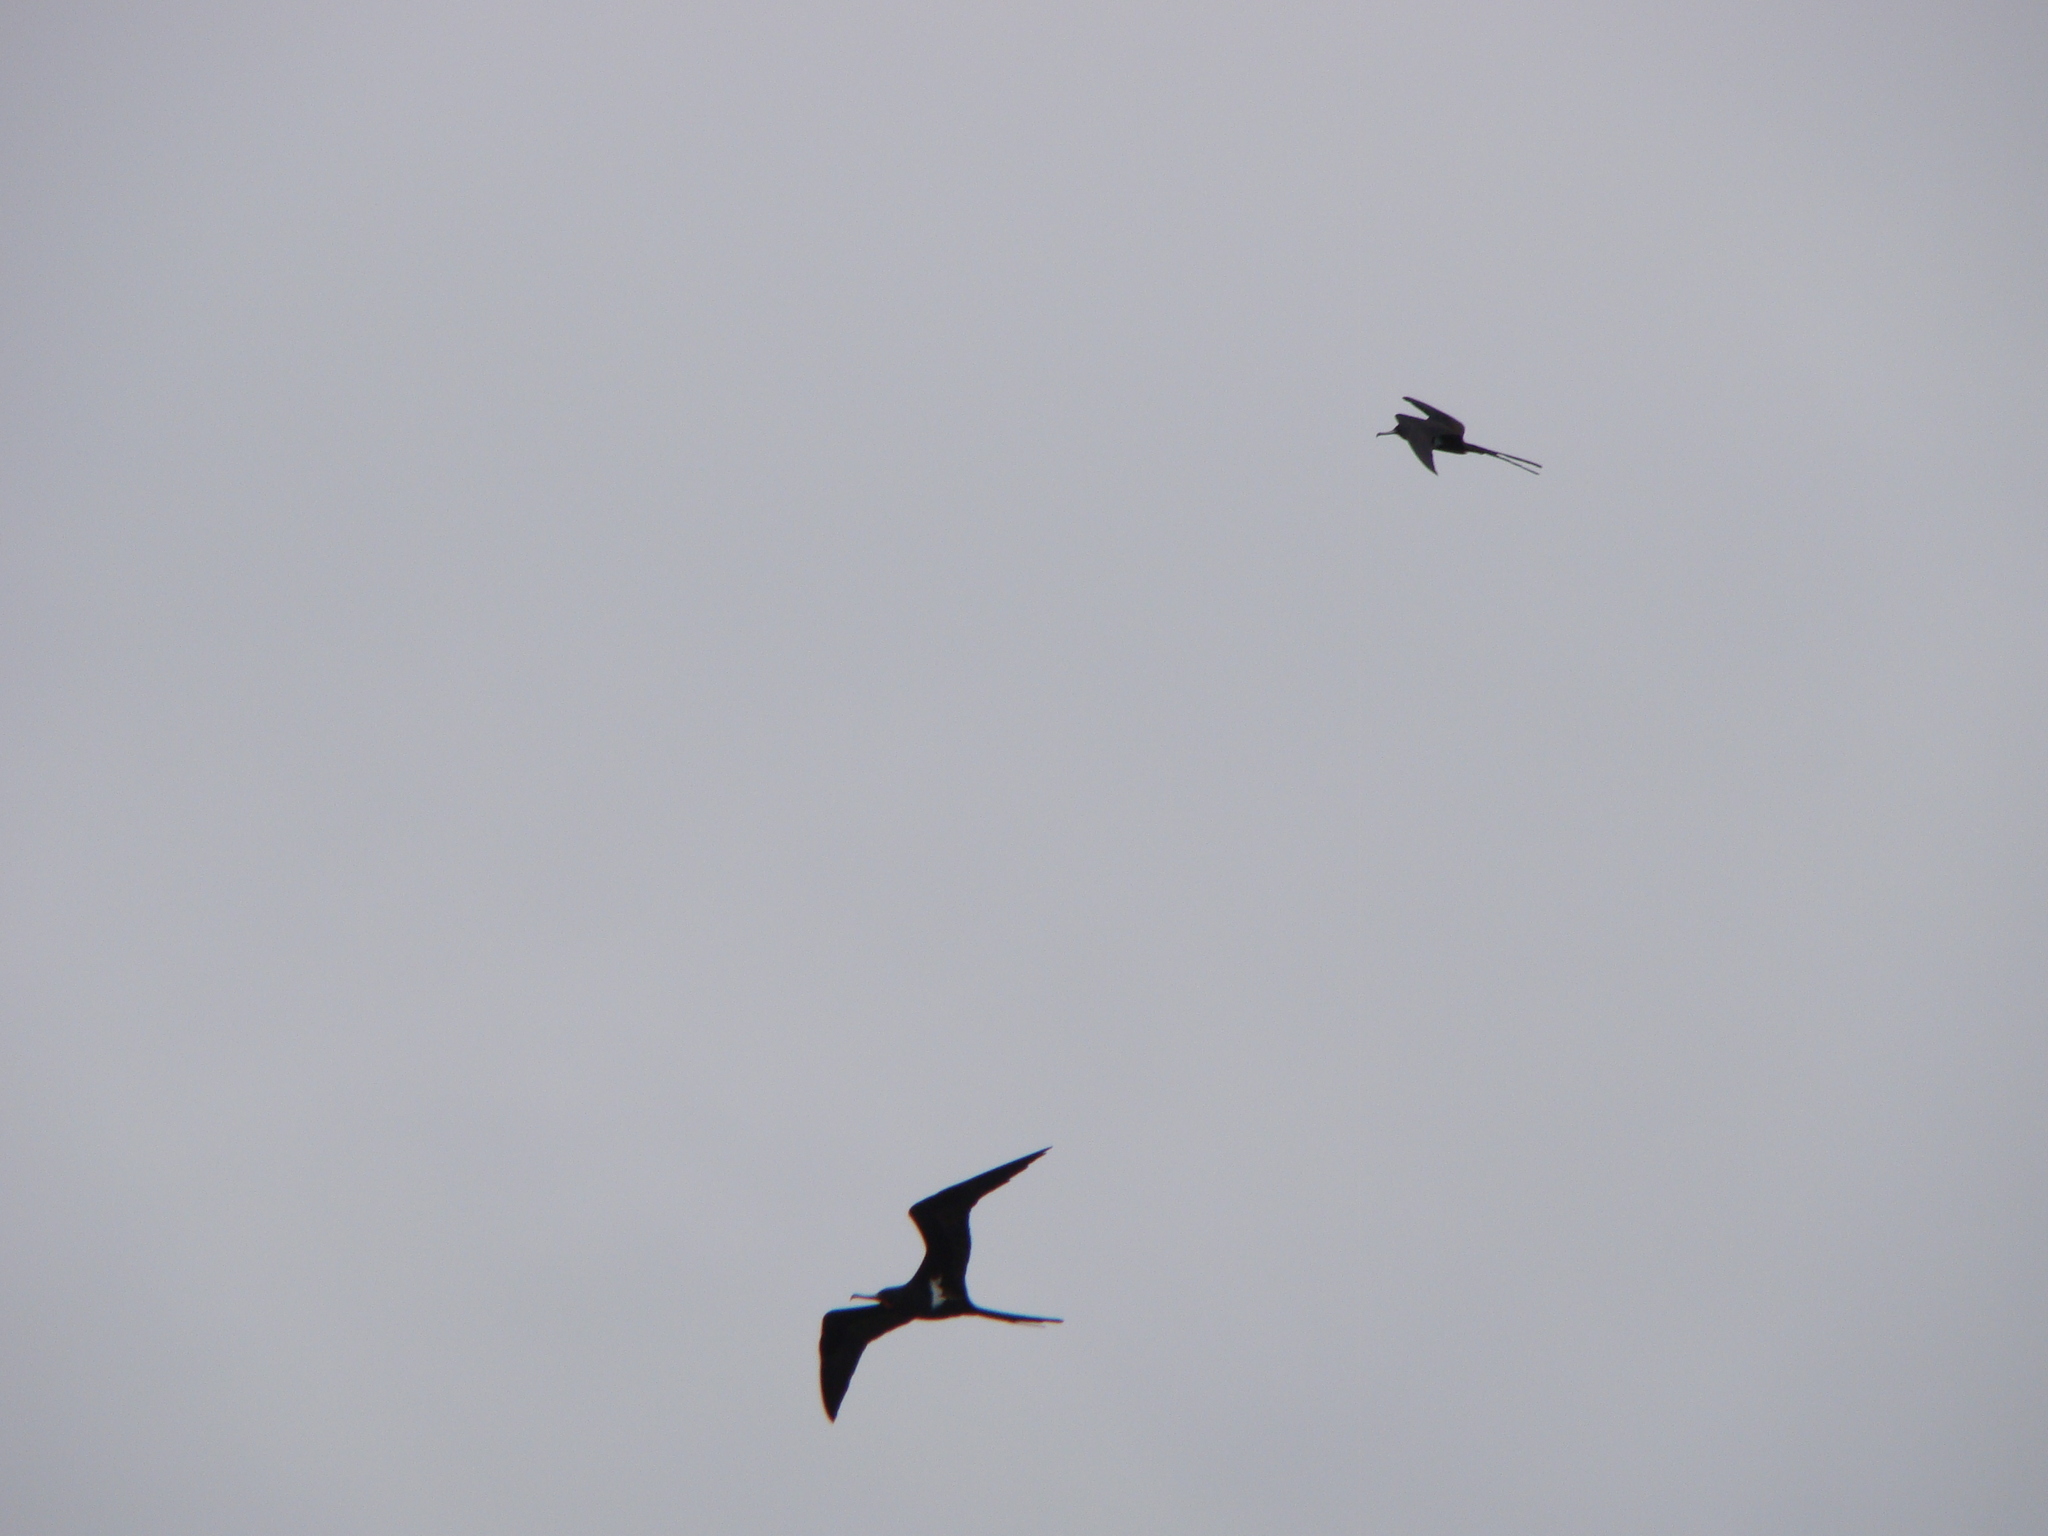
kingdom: Animalia
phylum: Chordata
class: Aves
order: Suliformes
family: Fregatidae
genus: Fregata
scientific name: Fregata ariel
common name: Lesser frigatebird
